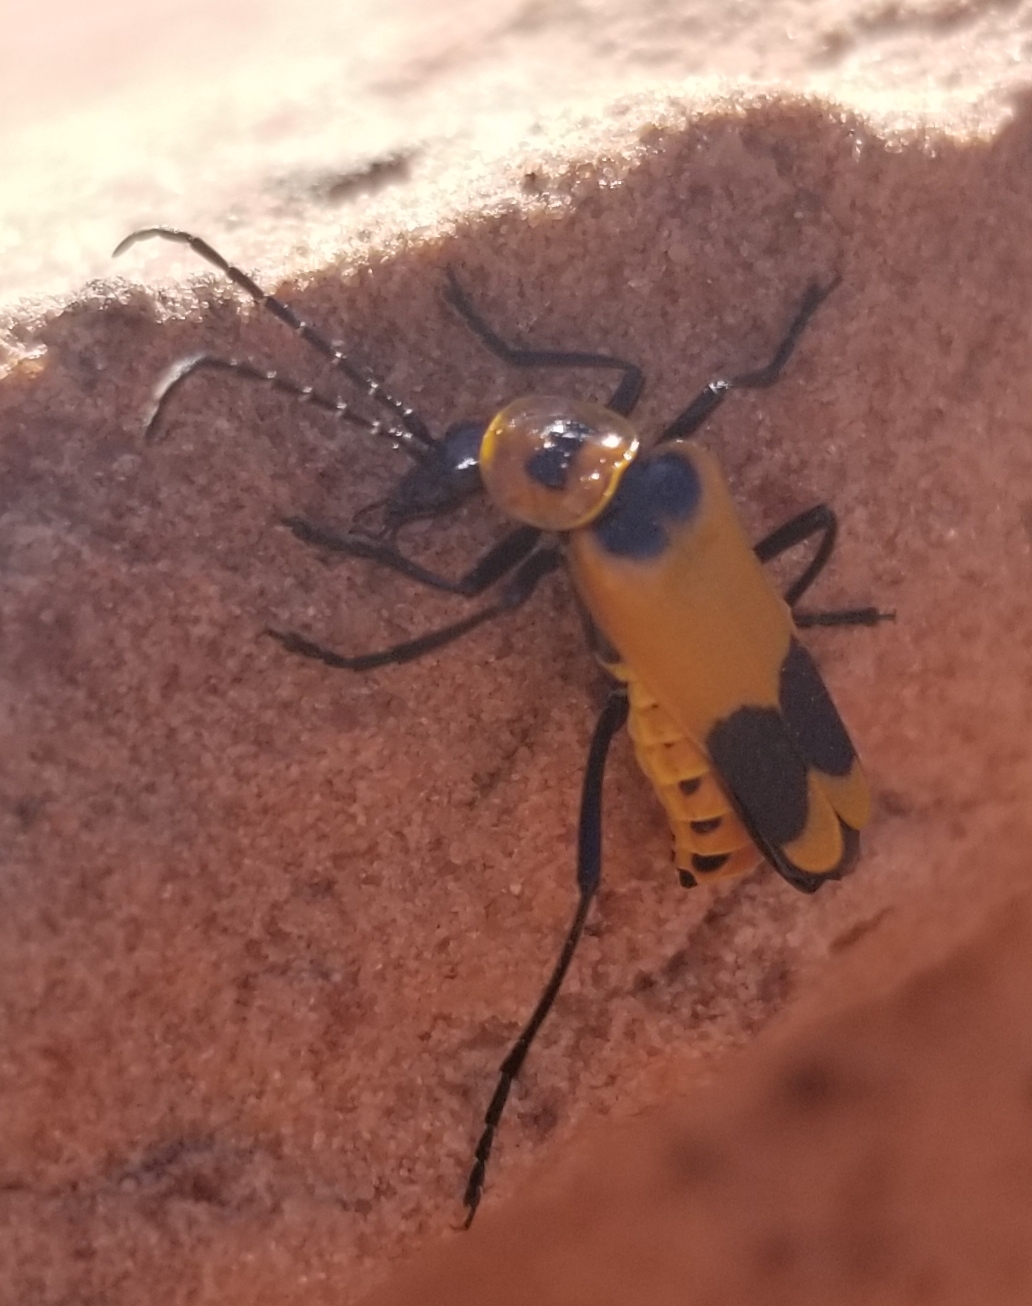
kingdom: Animalia
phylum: Arthropoda
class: Insecta
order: Coleoptera
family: Cantharidae
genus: Chauliognathus
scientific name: Chauliognathus fasciatus
